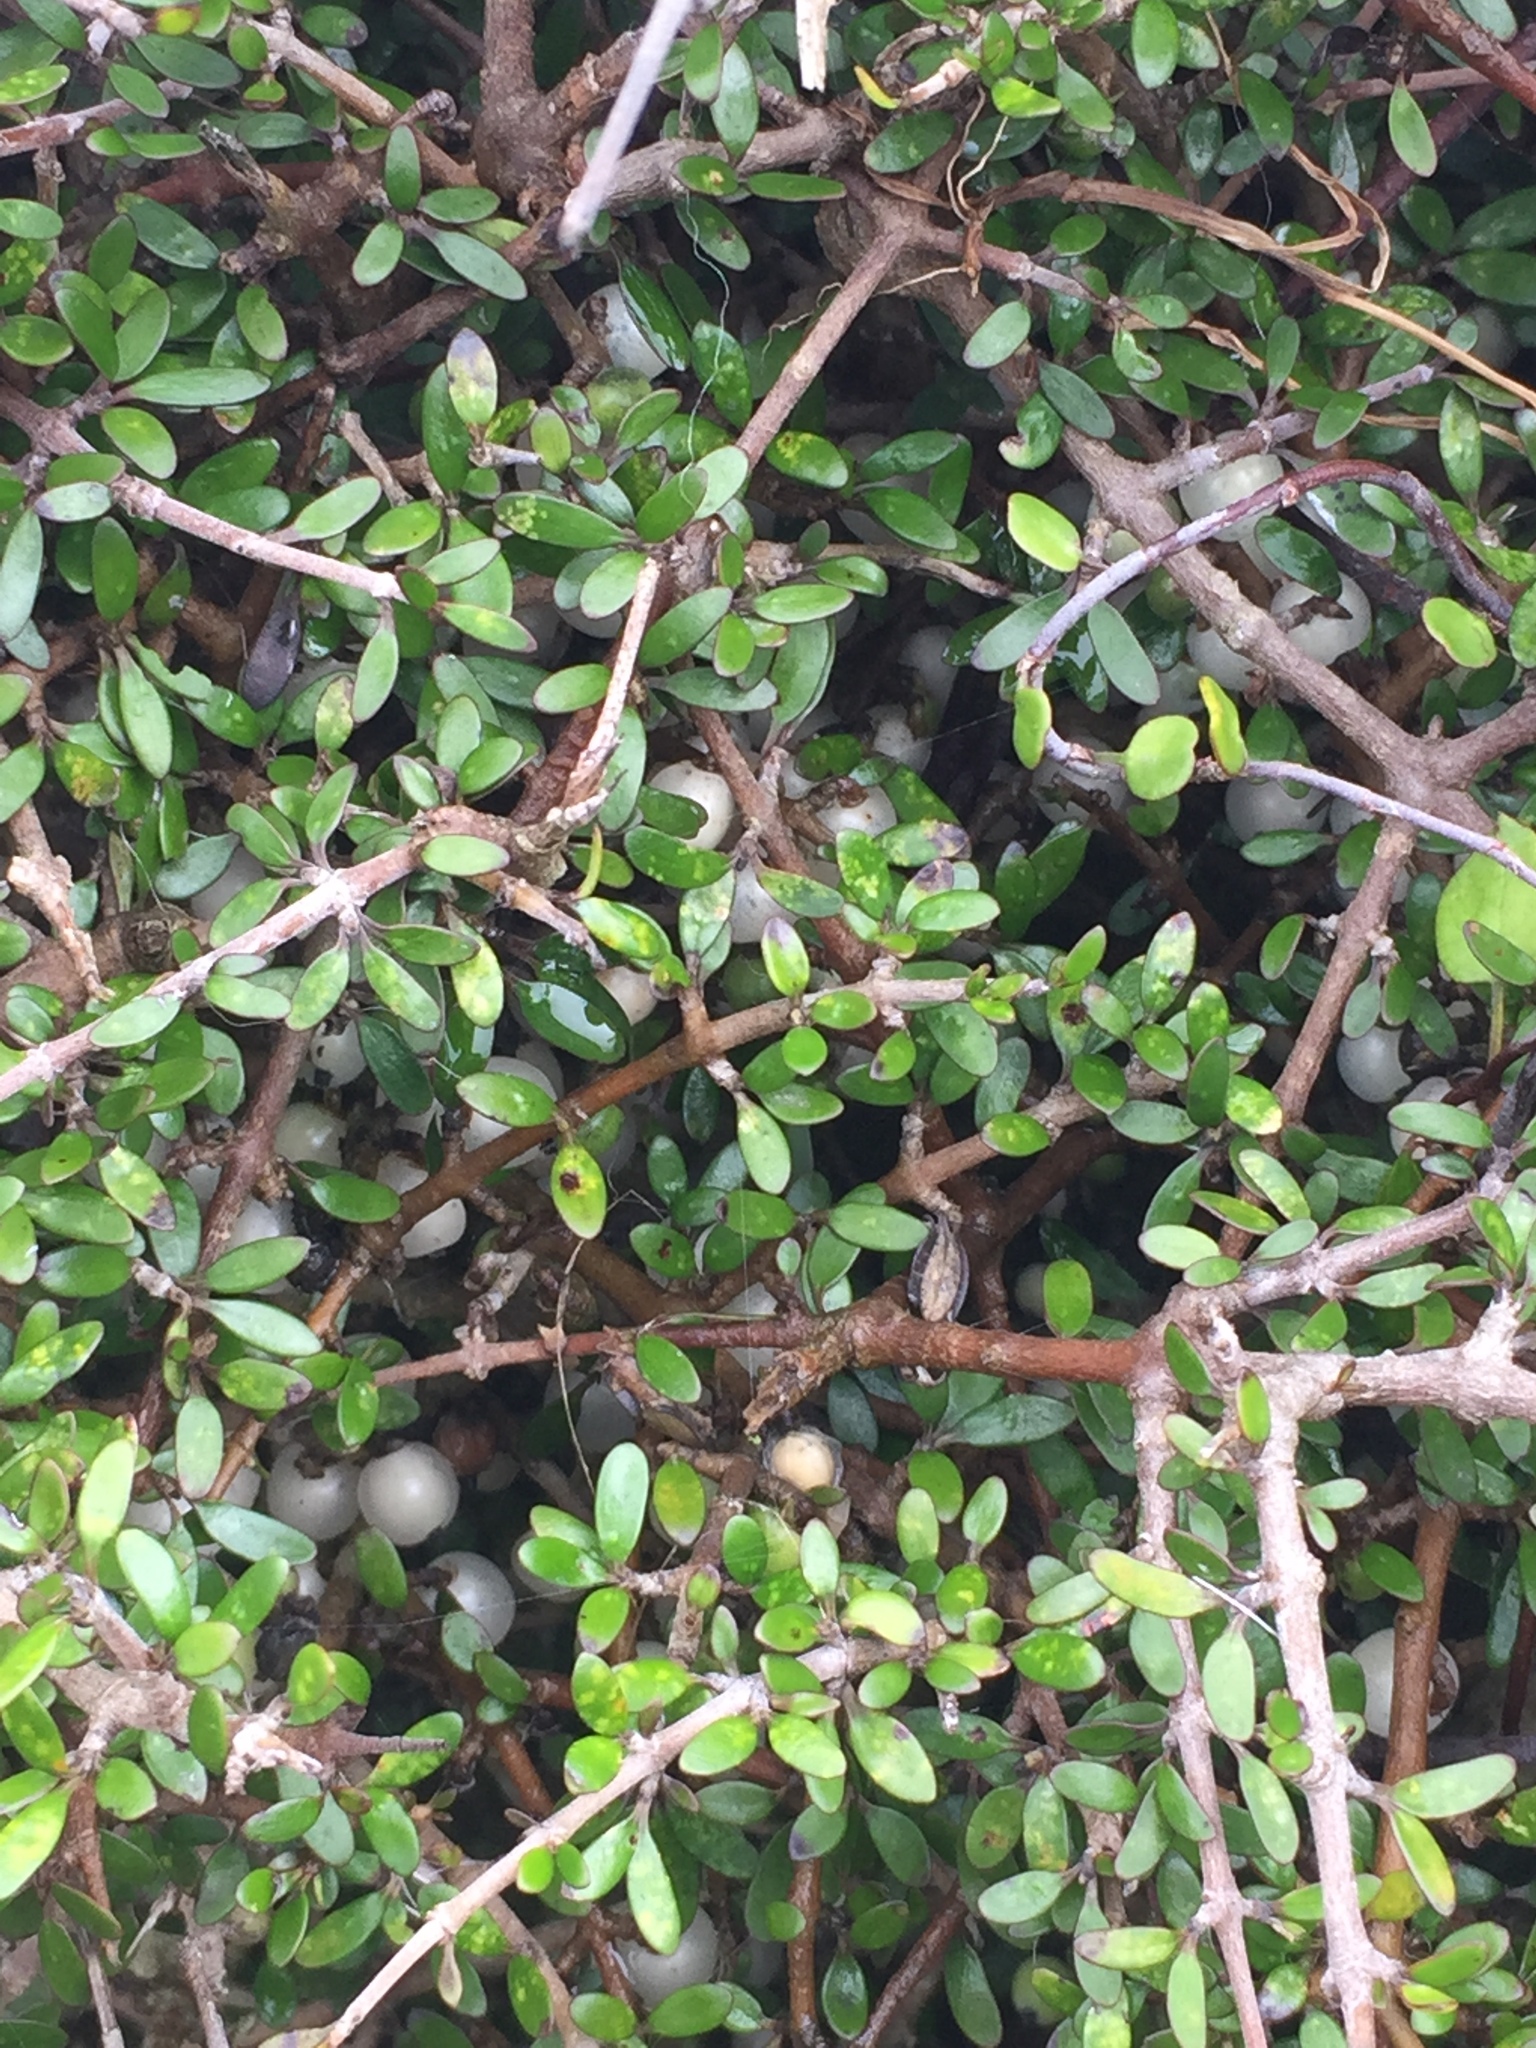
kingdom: Plantae
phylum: Tracheophyta
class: Magnoliopsida
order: Gentianales
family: Rubiaceae
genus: Coprosma
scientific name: Coprosma propinqua
